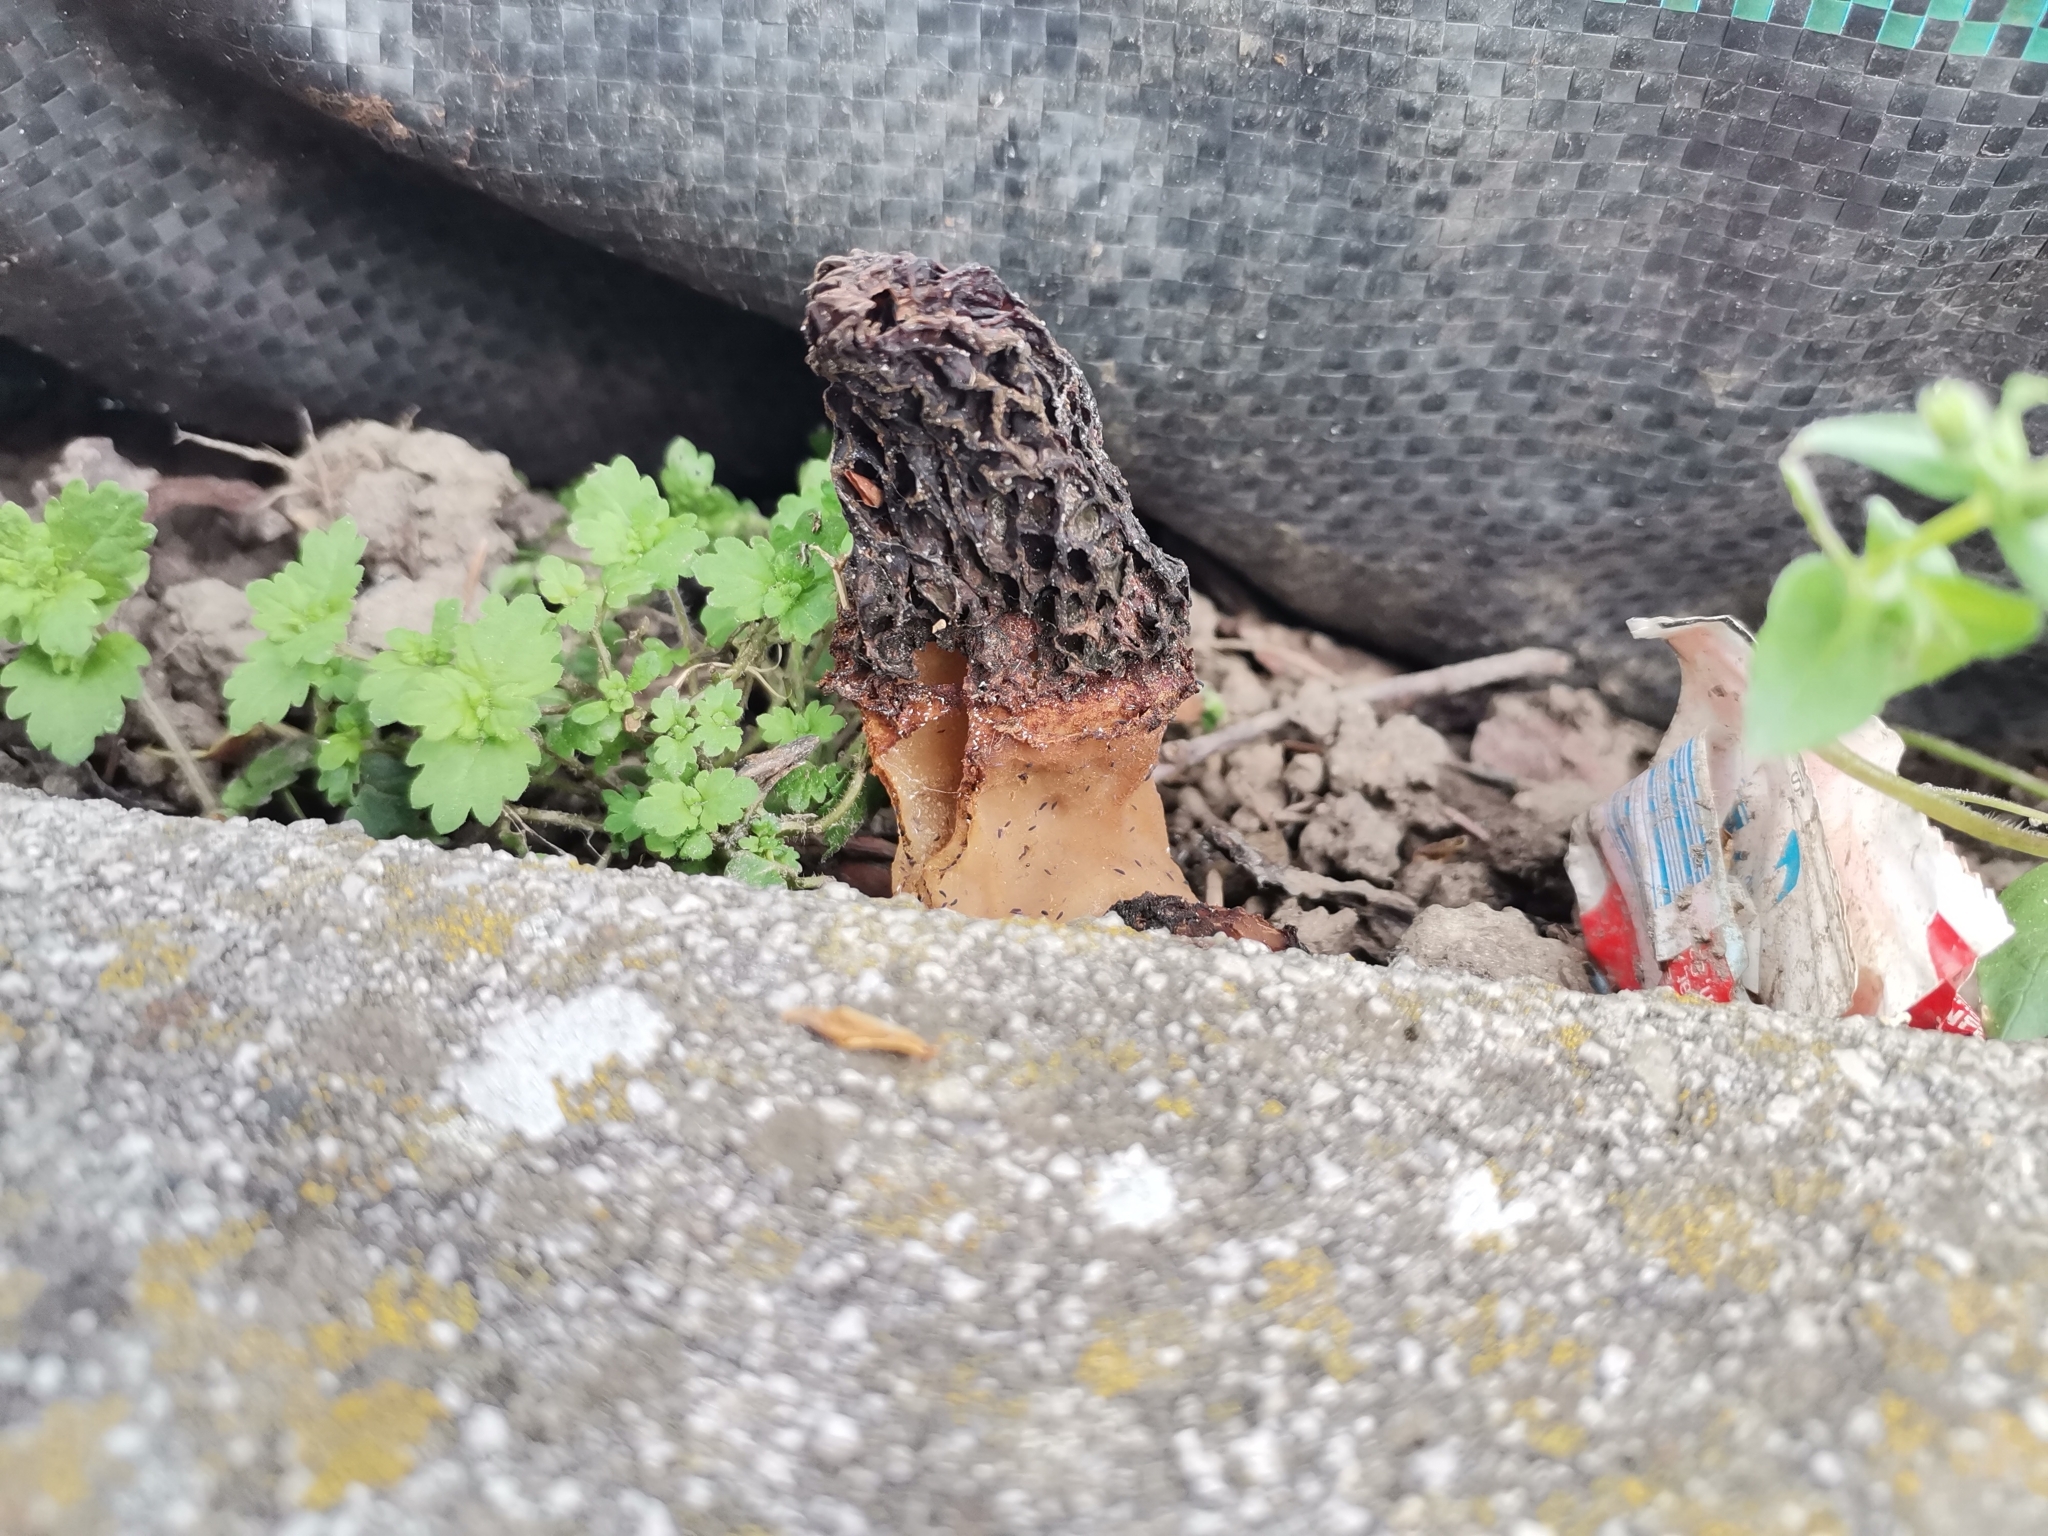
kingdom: Fungi
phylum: Ascomycota
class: Pezizomycetes
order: Pezizales
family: Morchellaceae
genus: Morchella
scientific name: Morchella importuna
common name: Landscaping black morel
